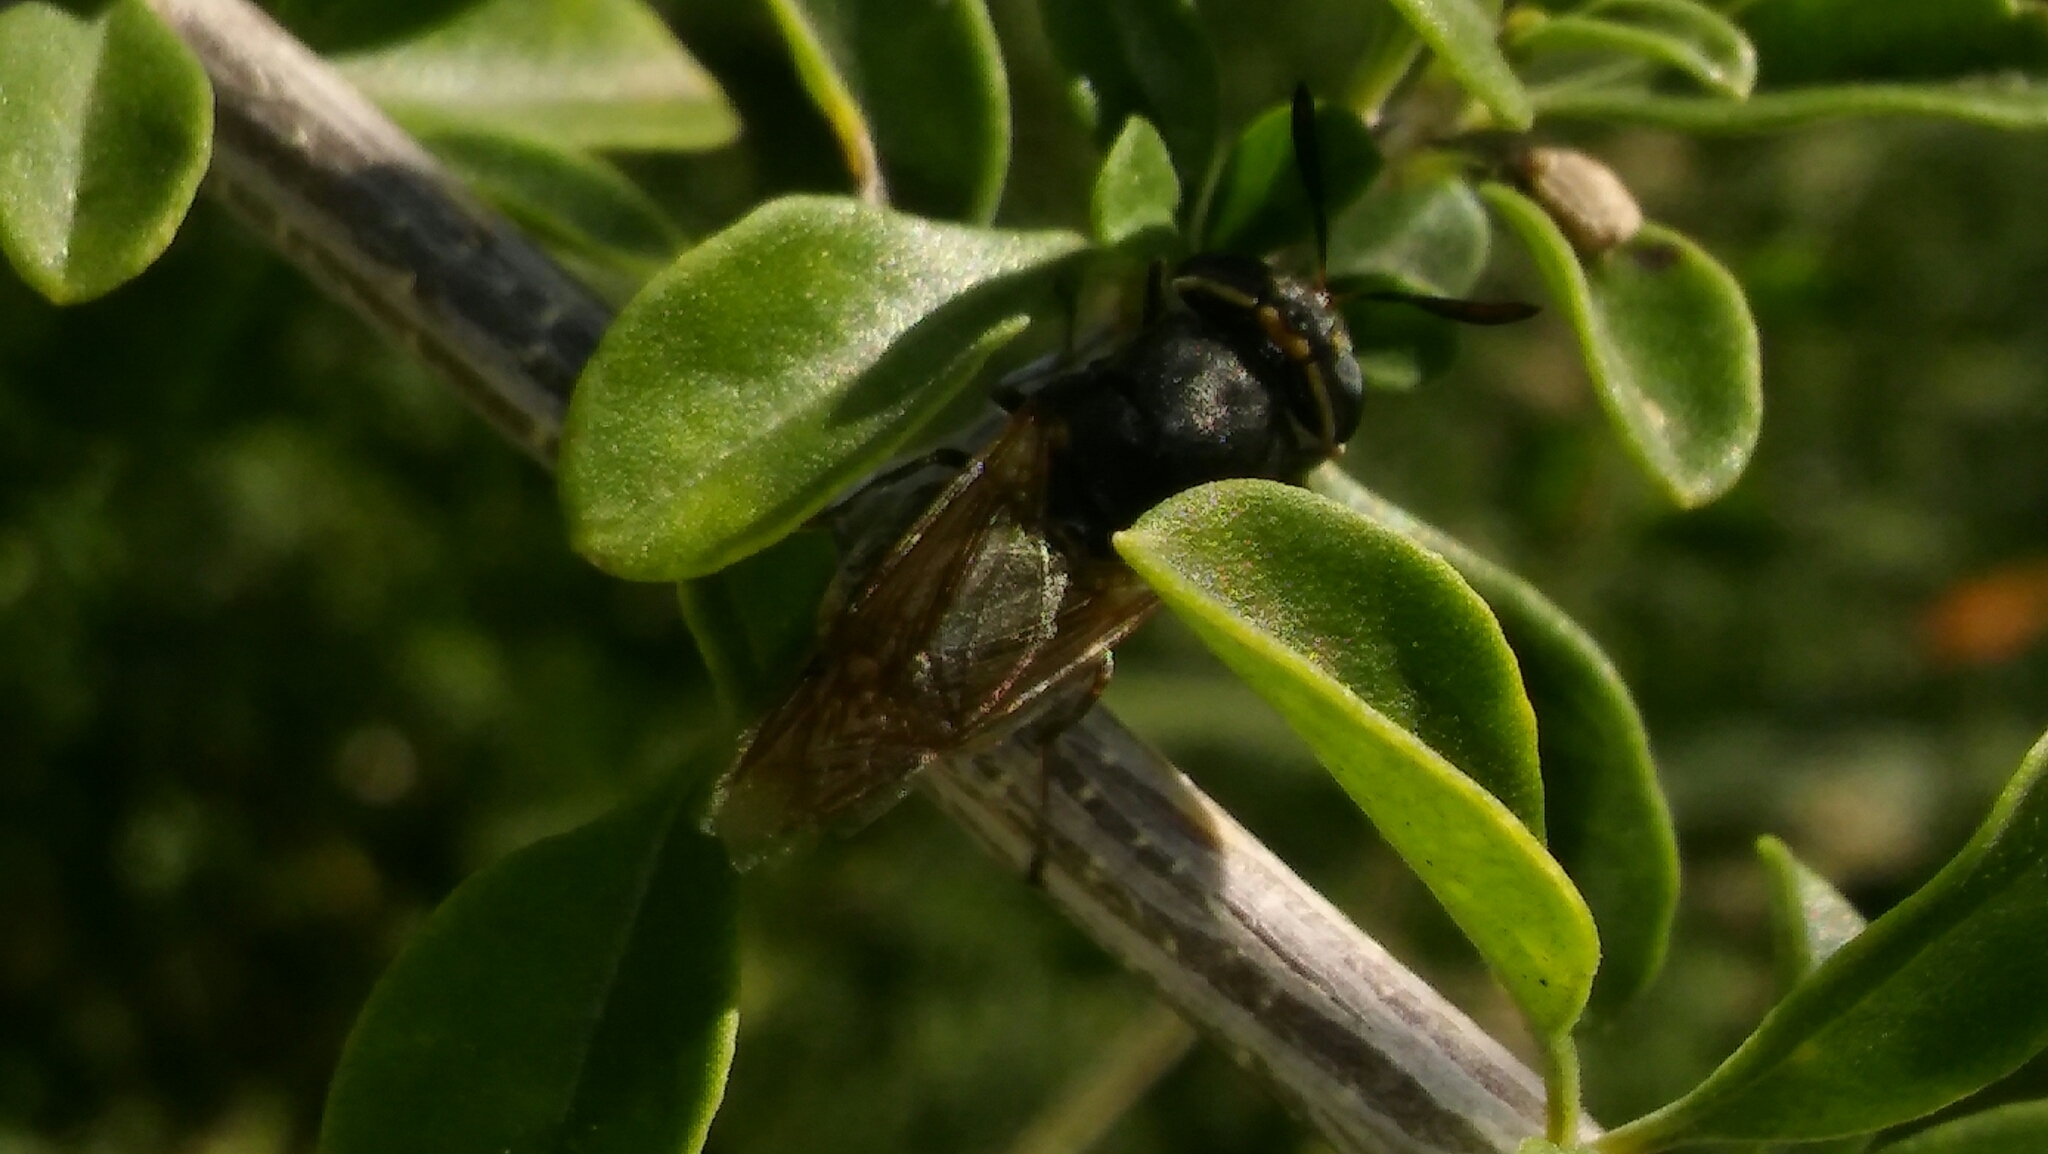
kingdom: Animalia
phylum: Arthropoda
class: Insecta
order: Diptera
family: Stratiomyidae
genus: Hoplitimyia
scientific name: Hoplitimyia
